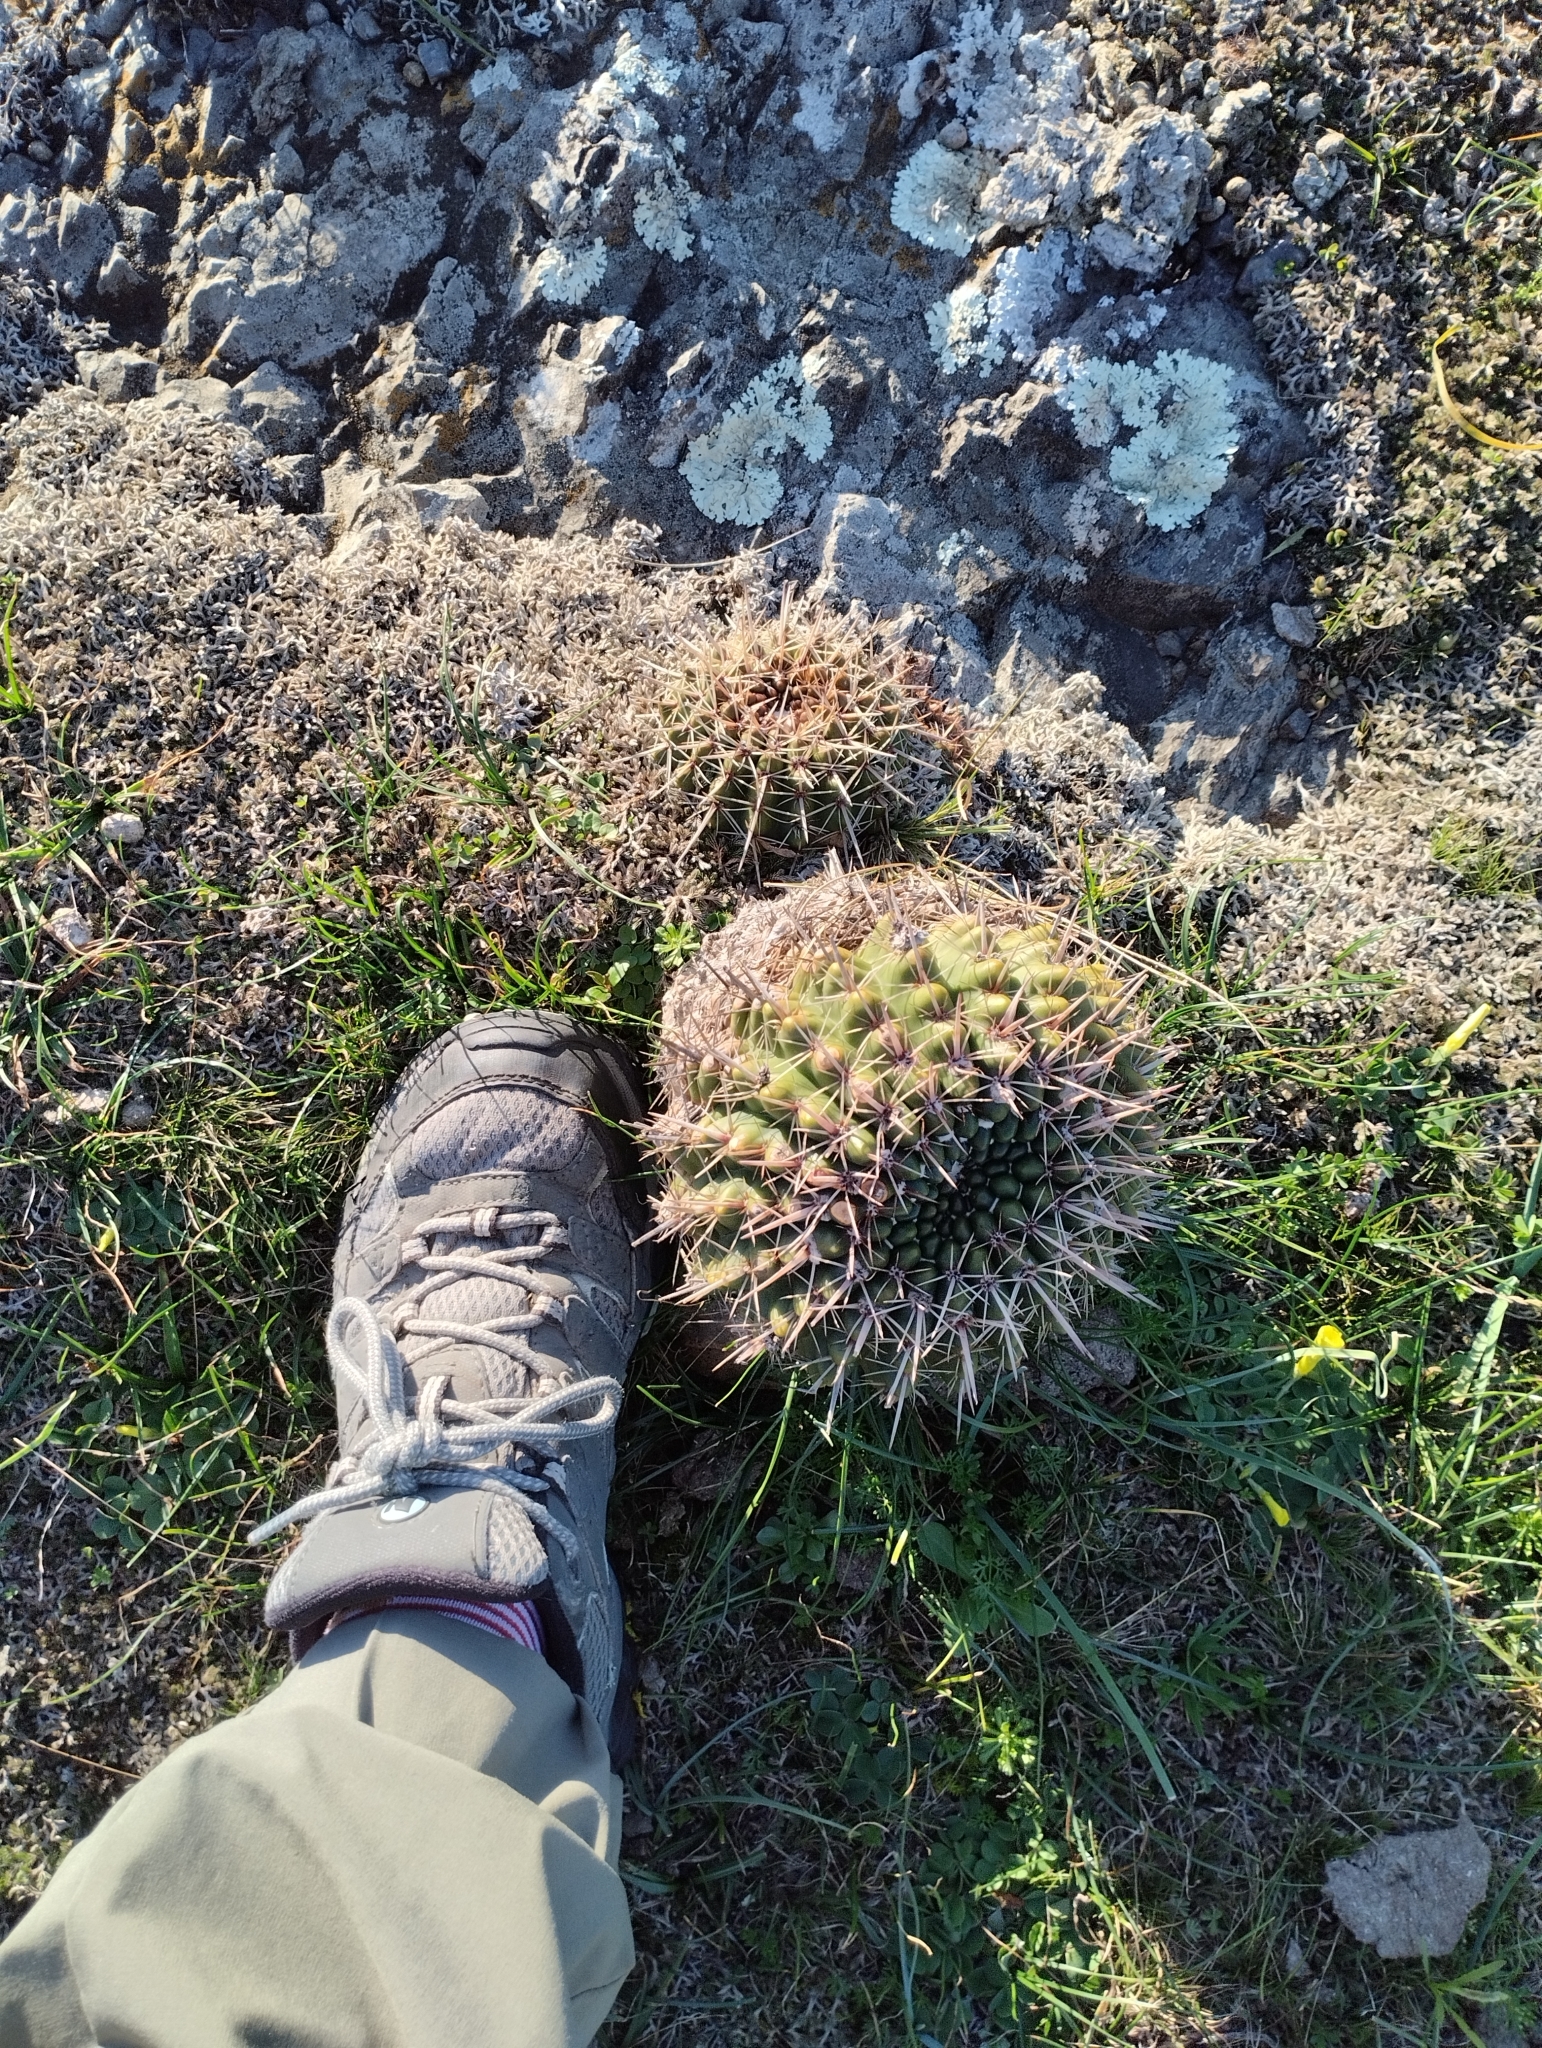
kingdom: Plantae
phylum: Tracheophyta
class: Magnoliopsida
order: Caryophyllales
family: Cactaceae
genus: Parodia
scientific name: Parodia mammulosa
